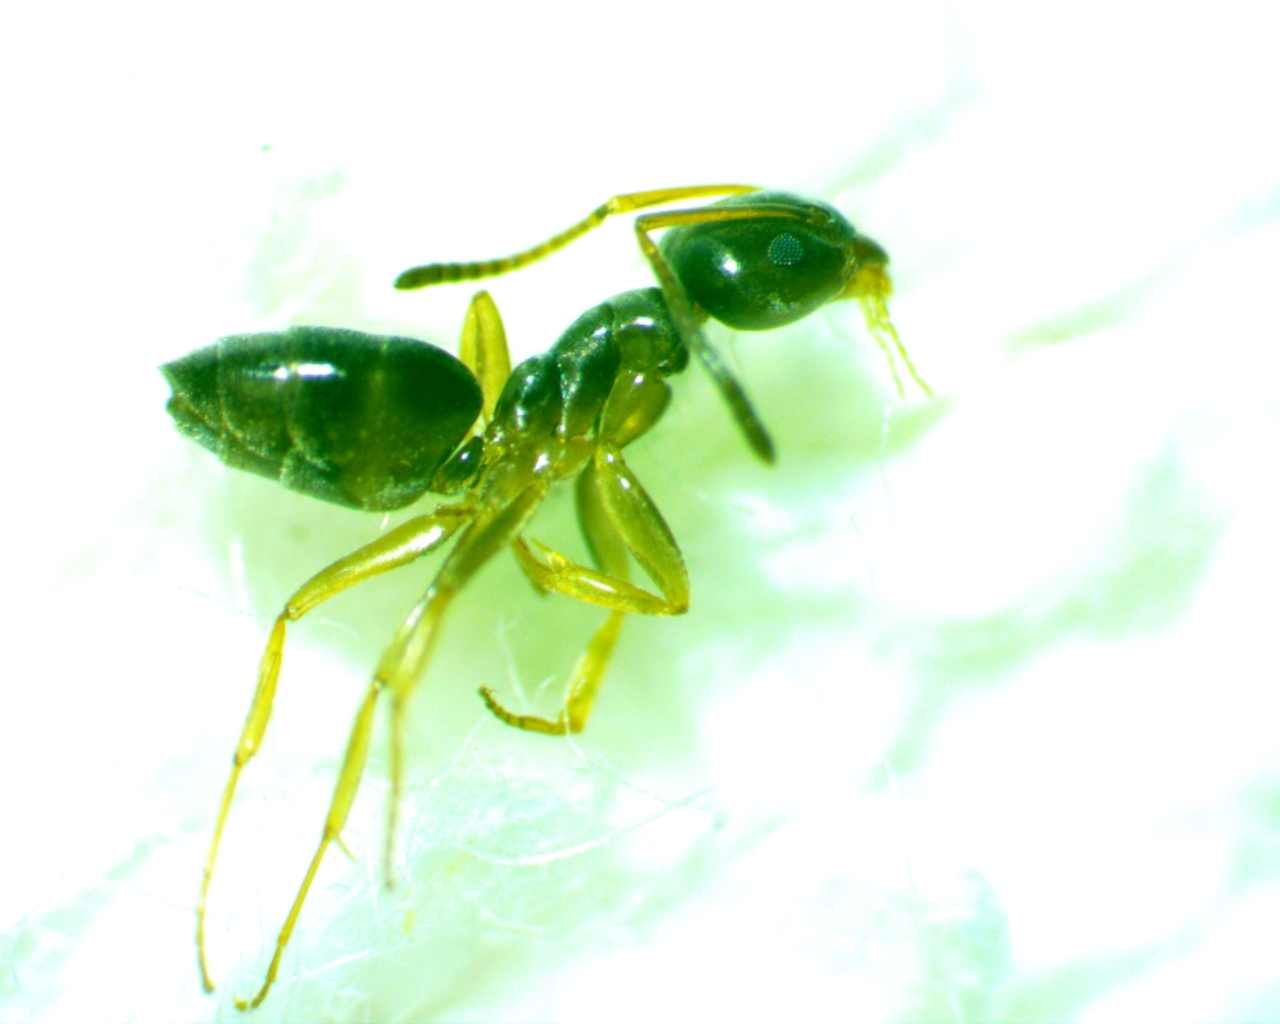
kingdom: Animalia
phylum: Arthropoda
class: Insecta
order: Hymenoptera
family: Formicidae
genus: Tapinoma
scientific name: Tapinoma sessile
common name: Odorous house ant
